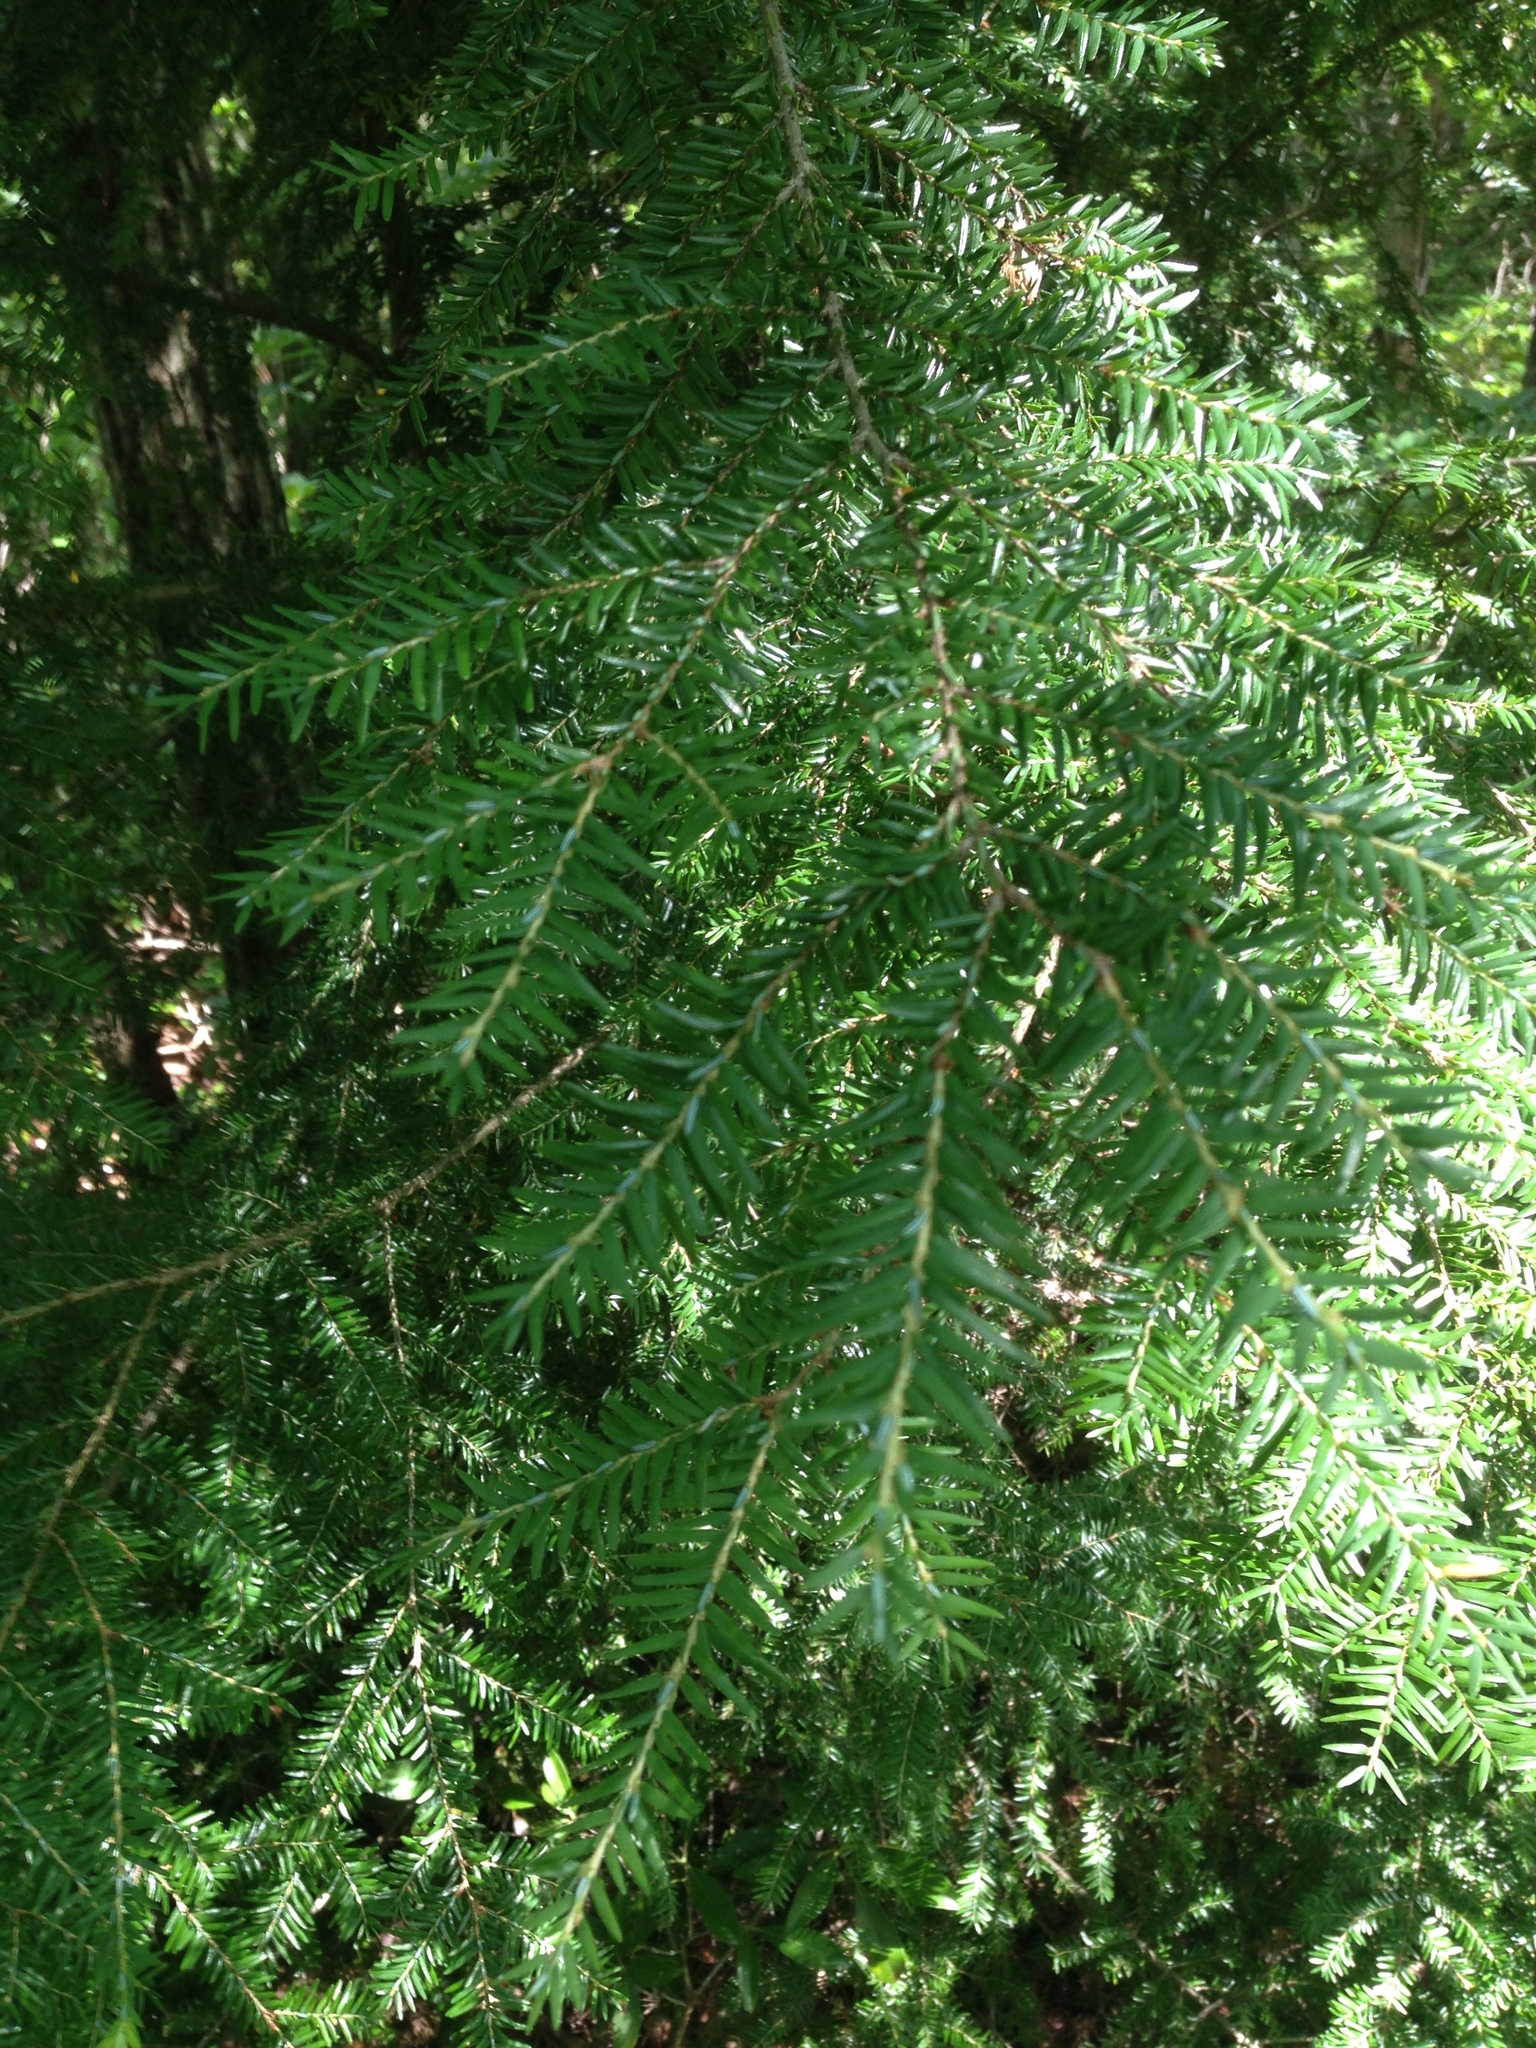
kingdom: Plantae
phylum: Tracheophyta
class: Pinopsida
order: Pinales
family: Pinaceae
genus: Tsuga
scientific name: Tsuga canadensis
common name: Eastern hemlock
